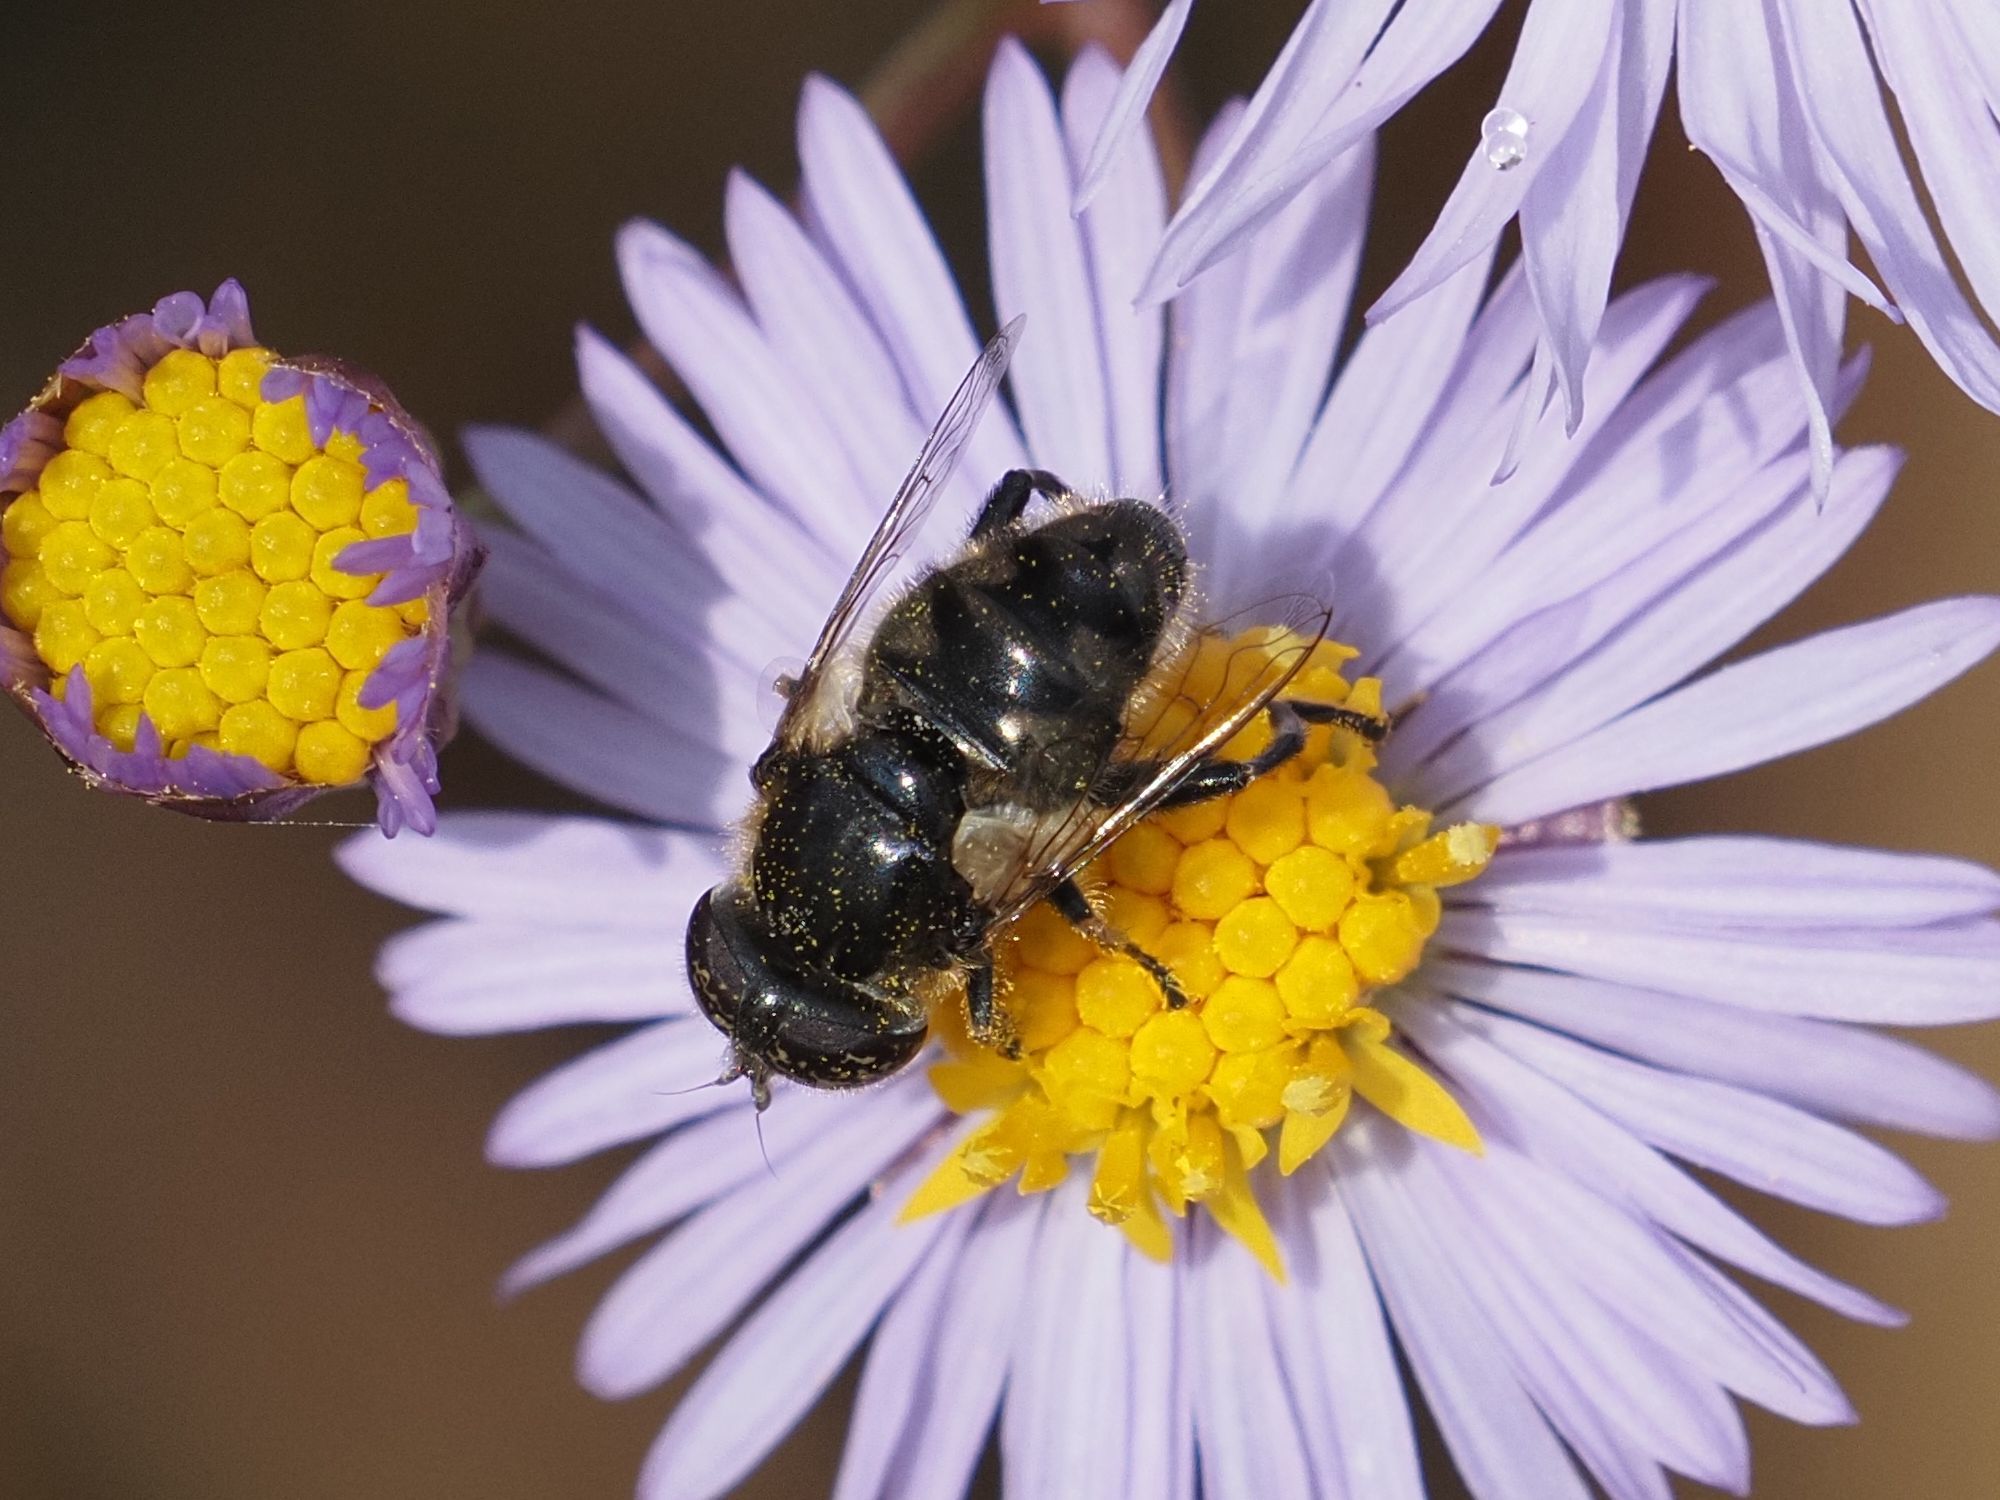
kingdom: Animalia
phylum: Arthropoda
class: Insecta
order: Diptera
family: Syrphidae
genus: Eristalinus
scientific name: Eristalinus sepulchralis
